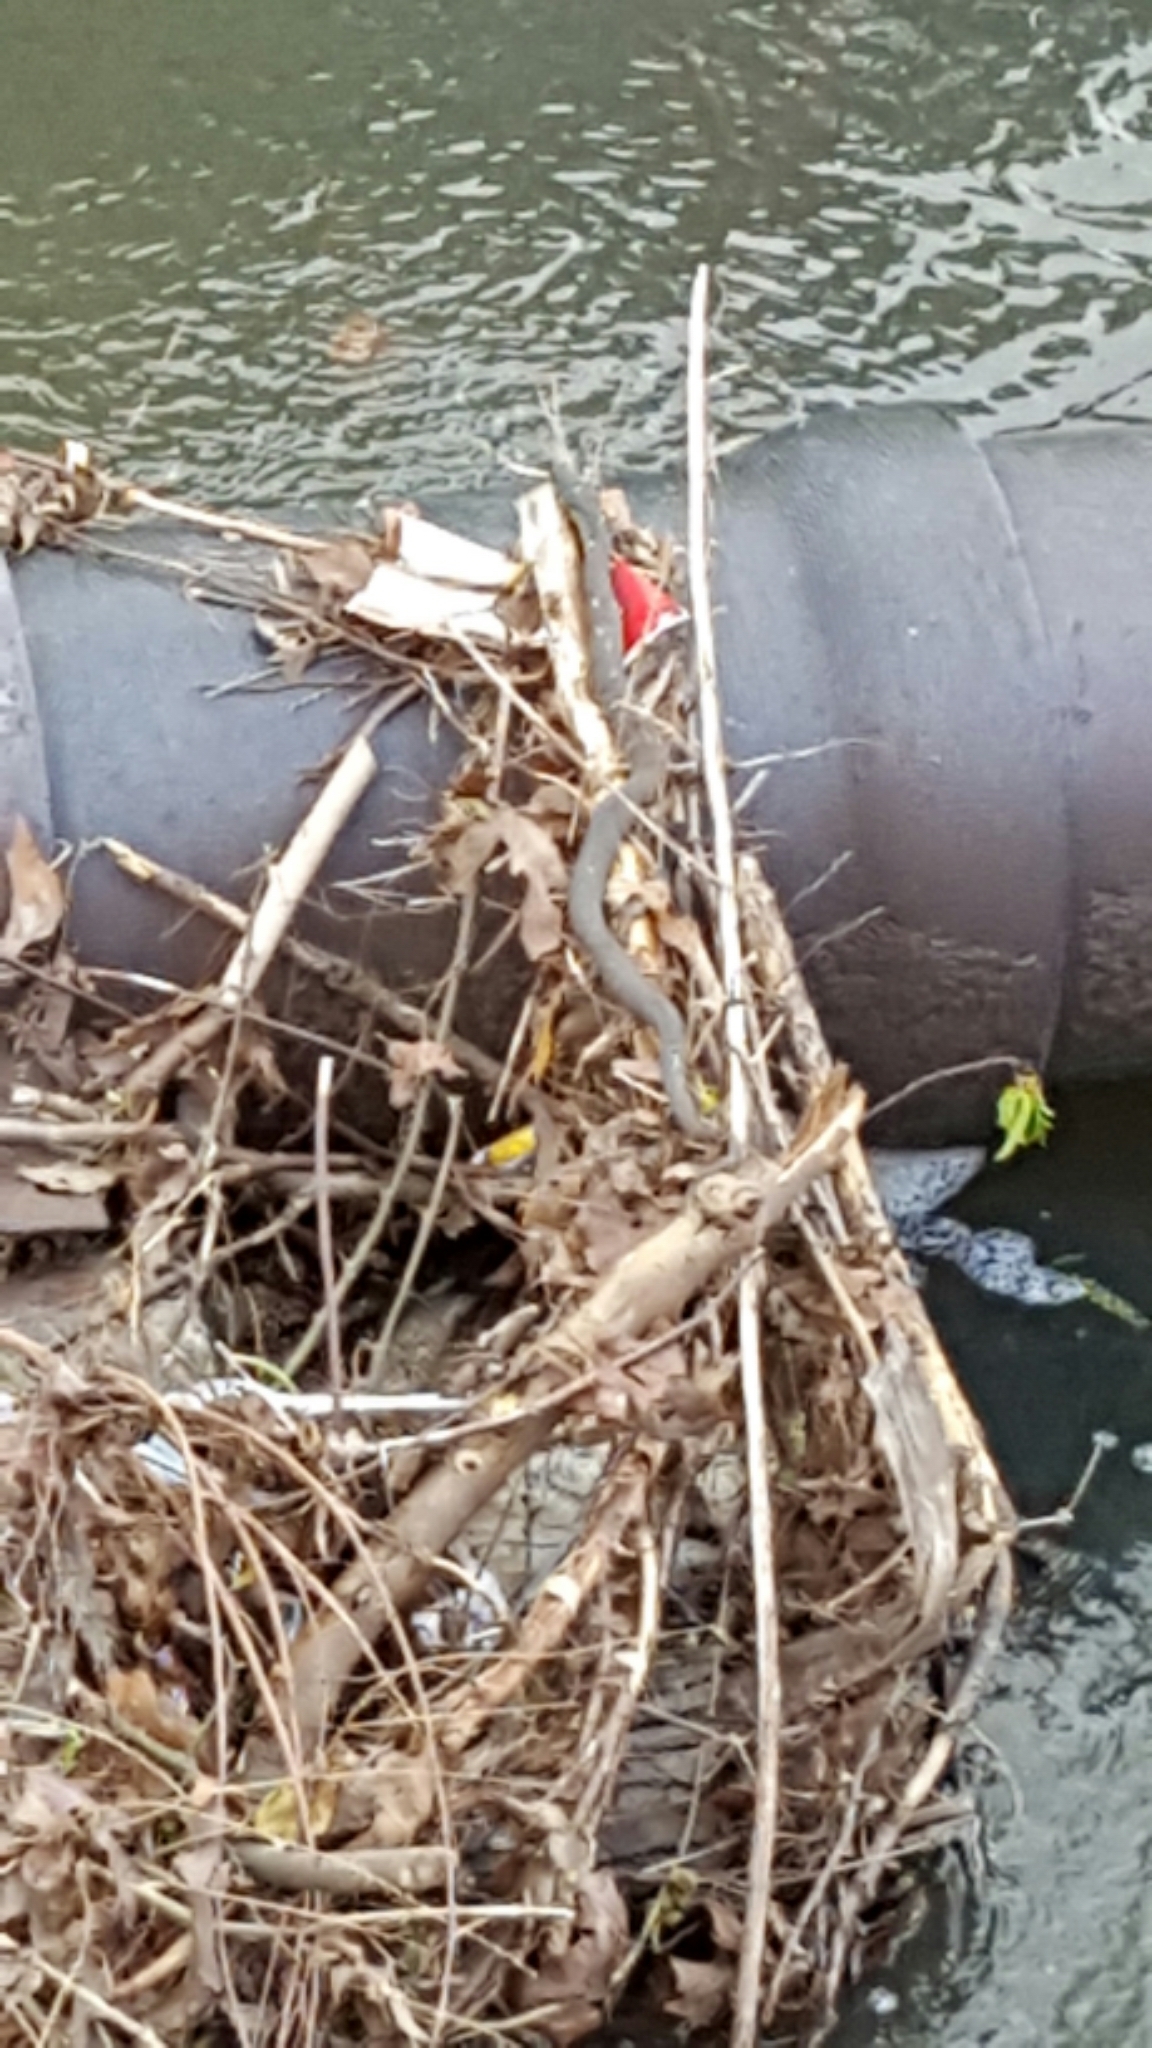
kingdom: Animalia
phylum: Chordata
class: Squamata
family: Colubridae
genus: Nerodia
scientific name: Nerodia sipedon
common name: Northern water snake
